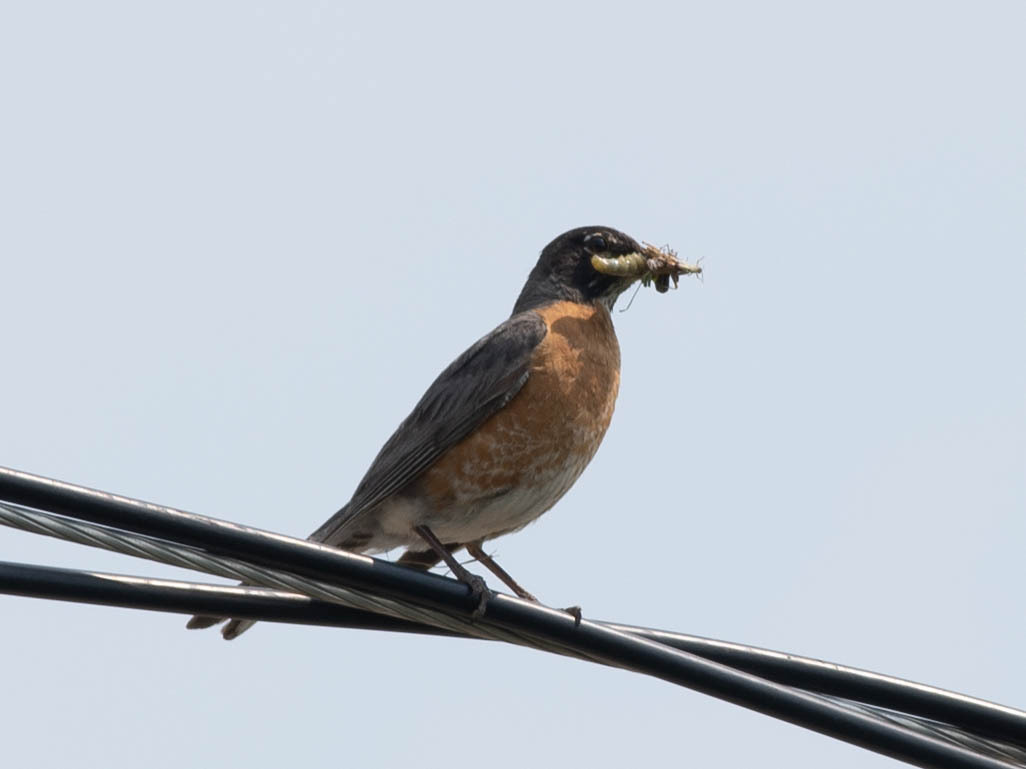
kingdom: Animalia
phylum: Chordata
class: Aves
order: Passeriformes
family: Turdidae
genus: Turdus
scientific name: Turdus migratorius
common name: American robin
